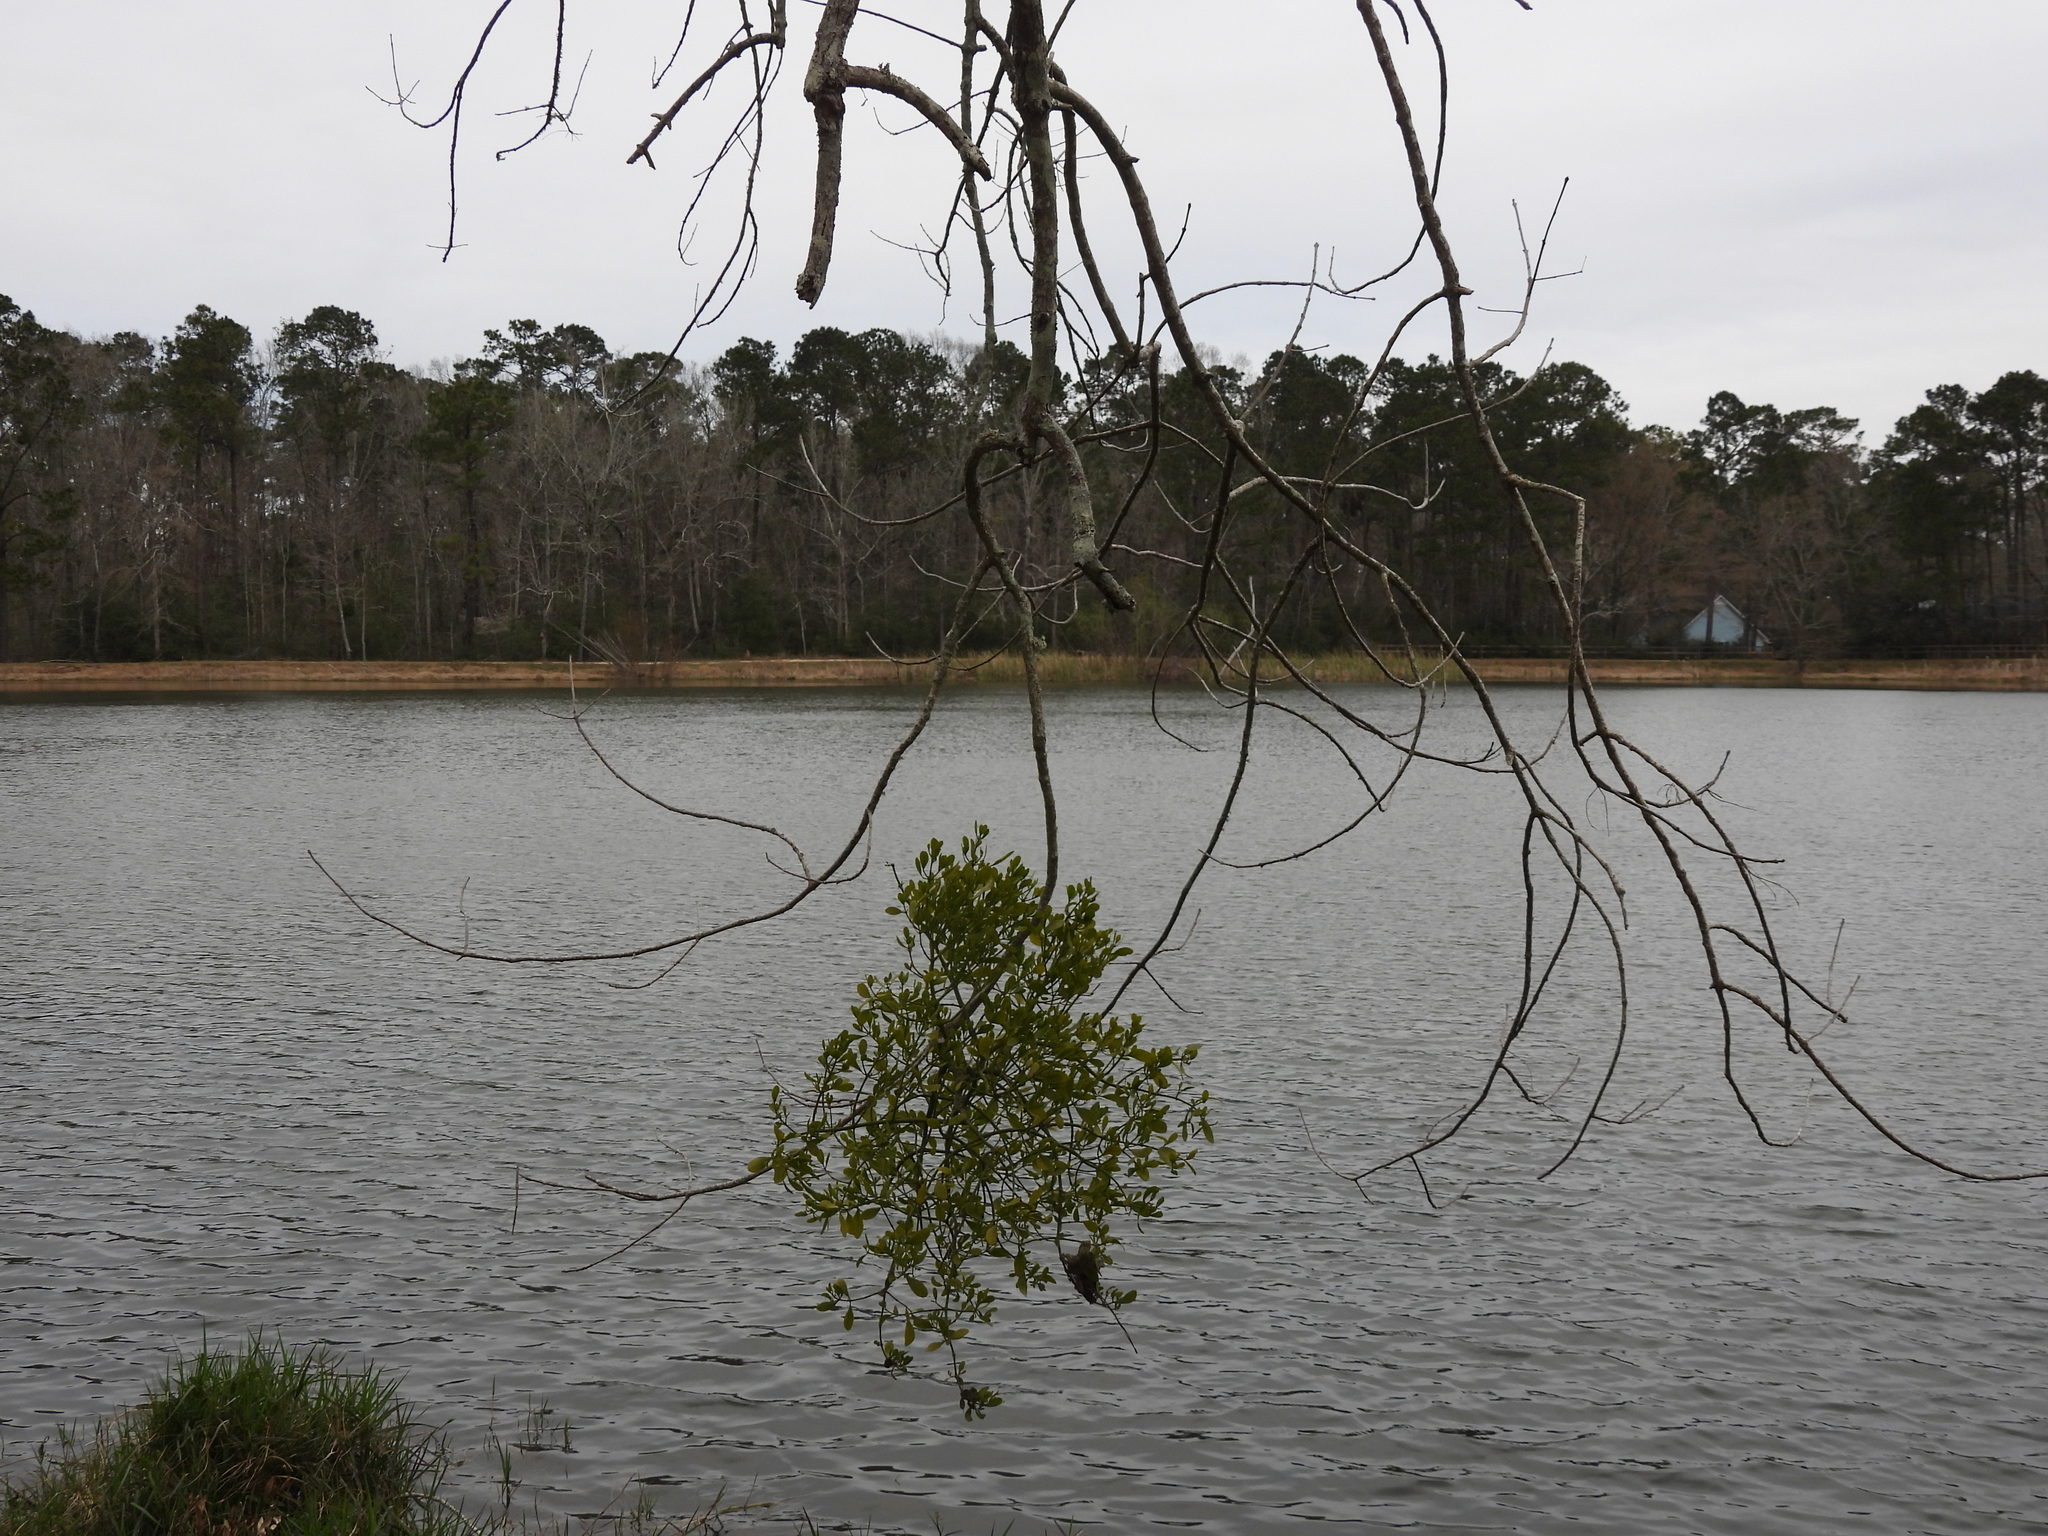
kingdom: Plantae
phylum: Tracheophyta
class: Magnoliopsida
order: Santalales
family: Viscaceae
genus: Phoradendron
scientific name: Phoradendron leucarpum
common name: Pacific mistletoe
